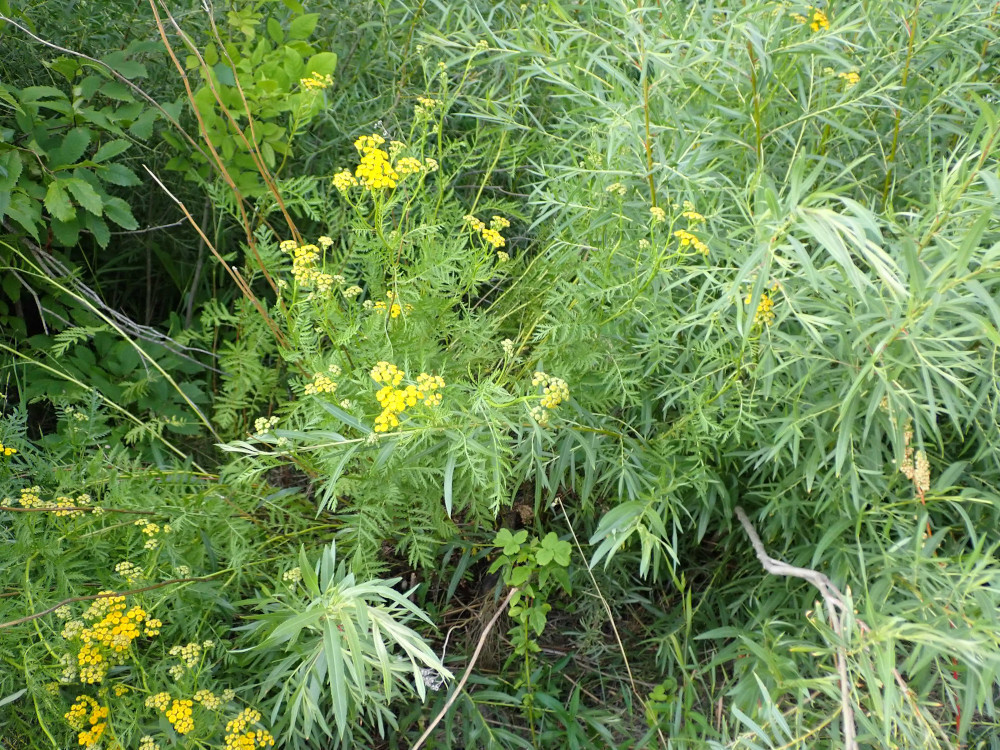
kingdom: Plantae
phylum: Tracheophyta
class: Magnoliopsida
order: Asterales
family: Asteraceae
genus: Tanacetum
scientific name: Tanacetum vulgare
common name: Common tansy
